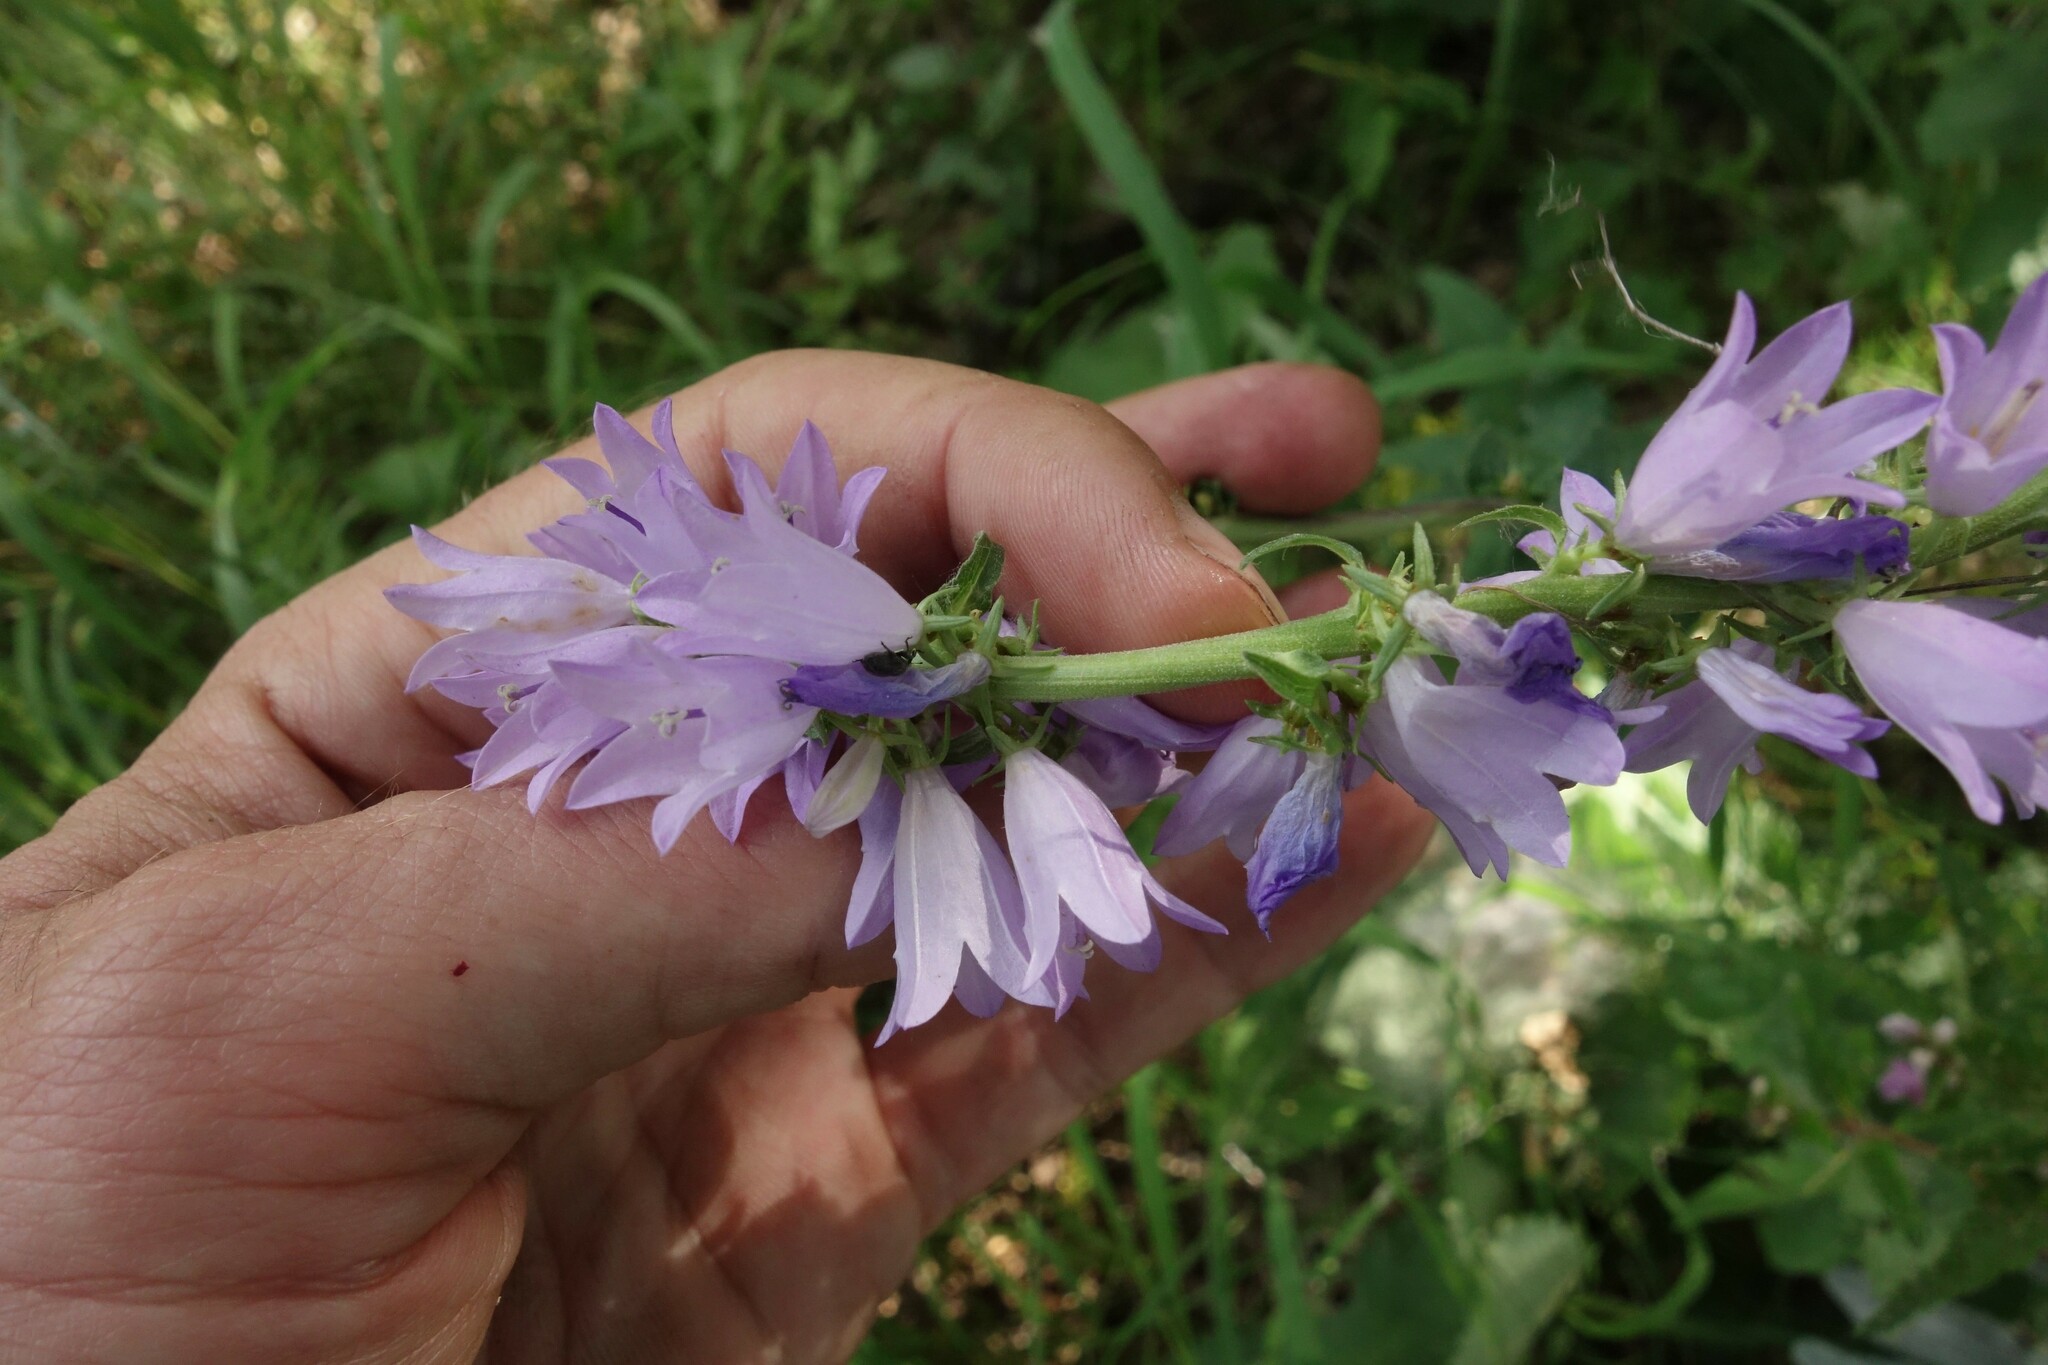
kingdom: Plantae
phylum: Tracheophyta
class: Magnoliopsida
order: Asterales
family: Campanulaceae
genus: Campanula
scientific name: Campanula bononiensis
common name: Pale bellflower
